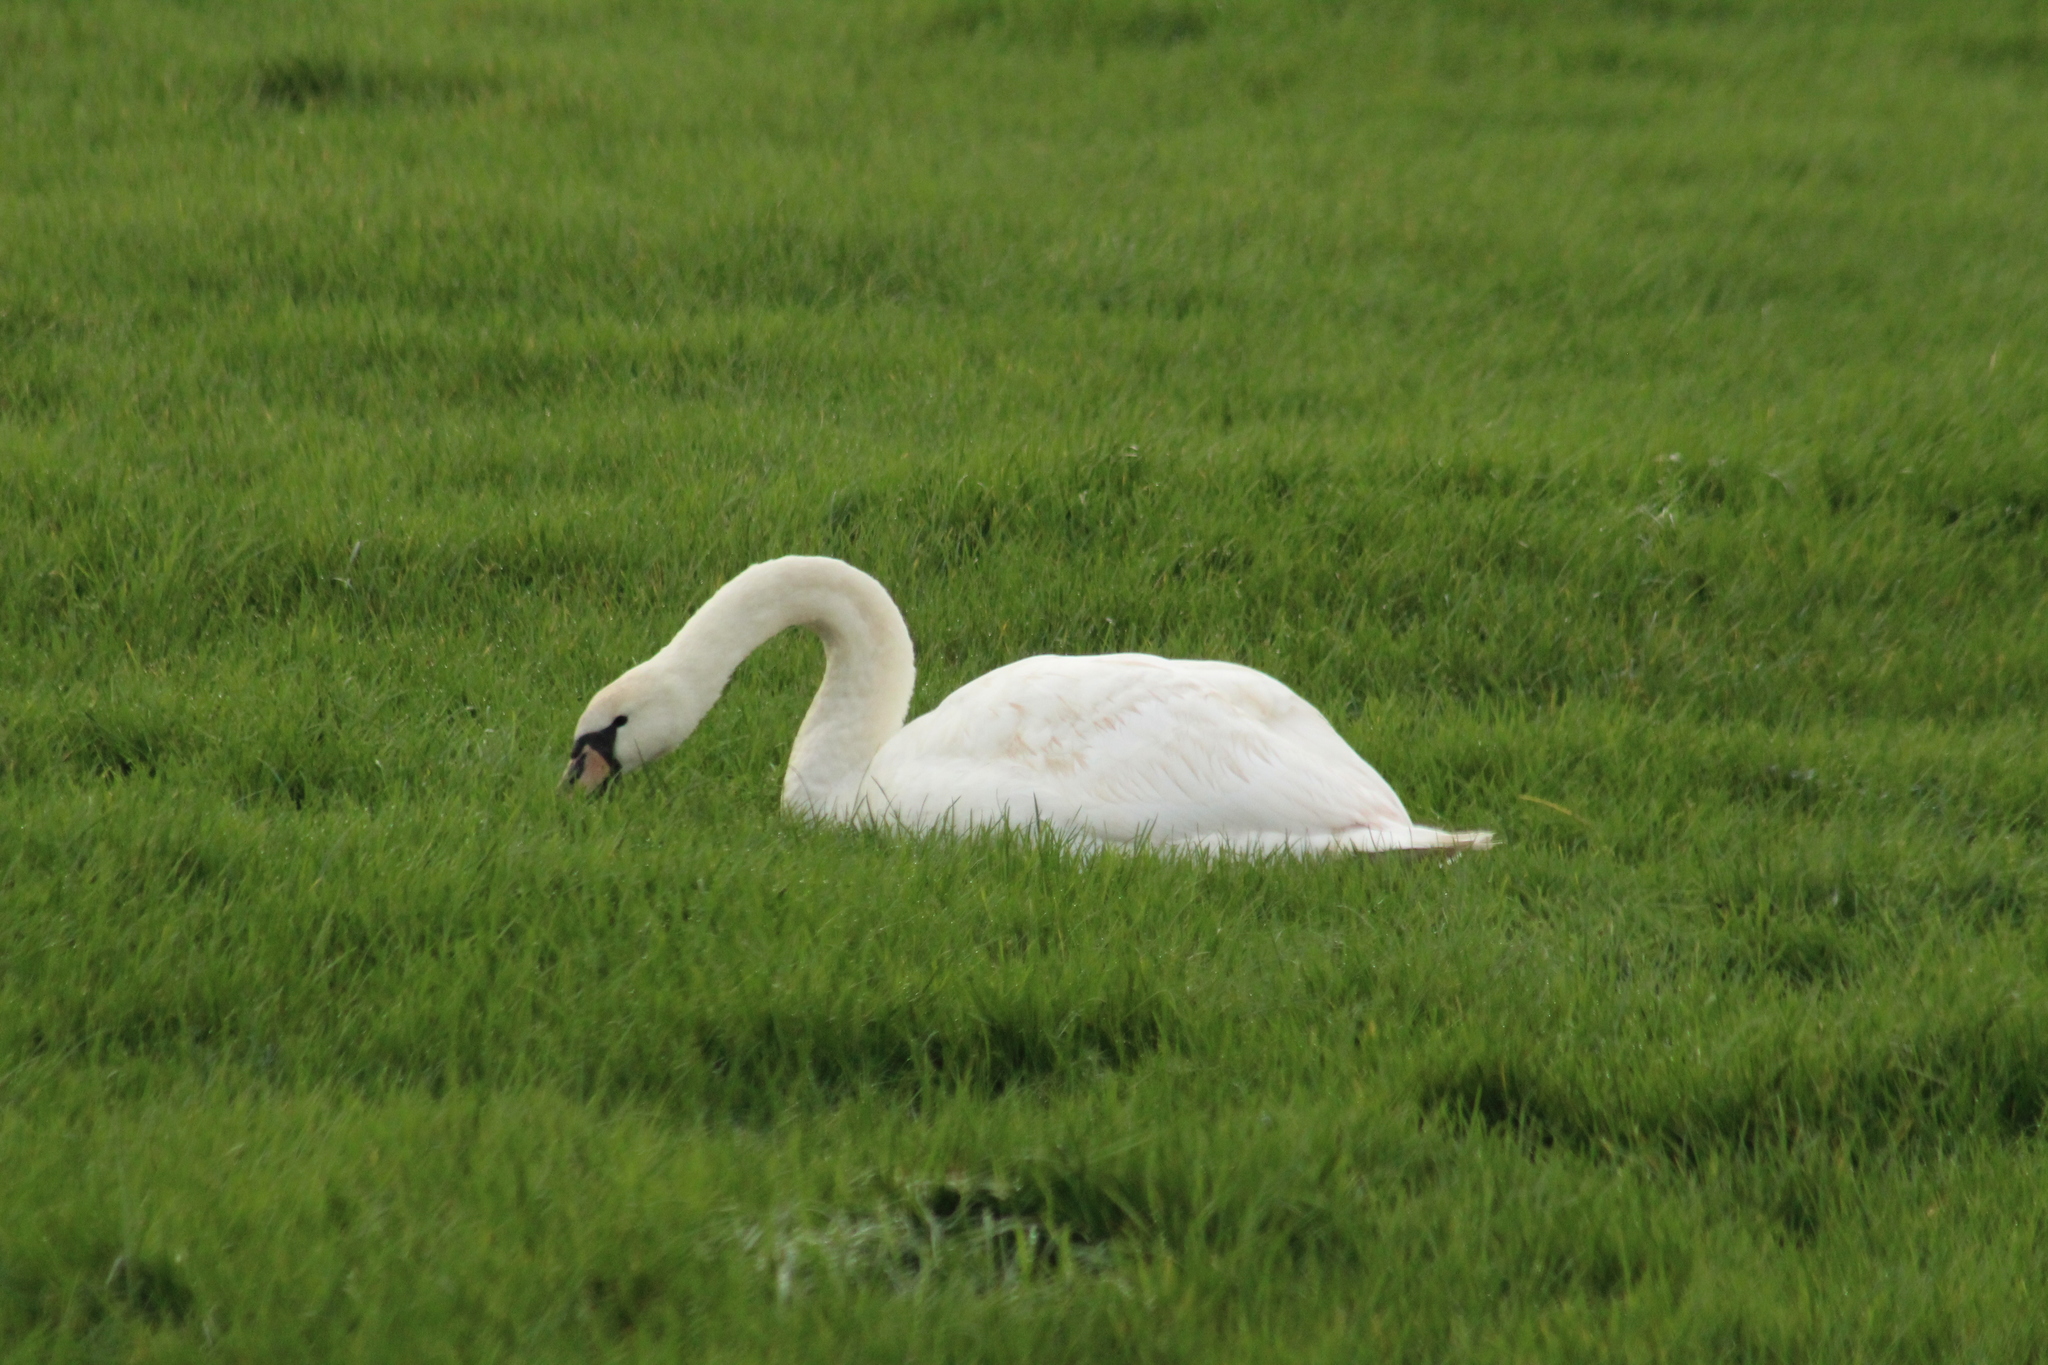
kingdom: Animalia
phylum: Chordata
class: Aves
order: Anseriformes
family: Anatidae
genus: Cygnus
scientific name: Cygnus olor
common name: Mute swan
